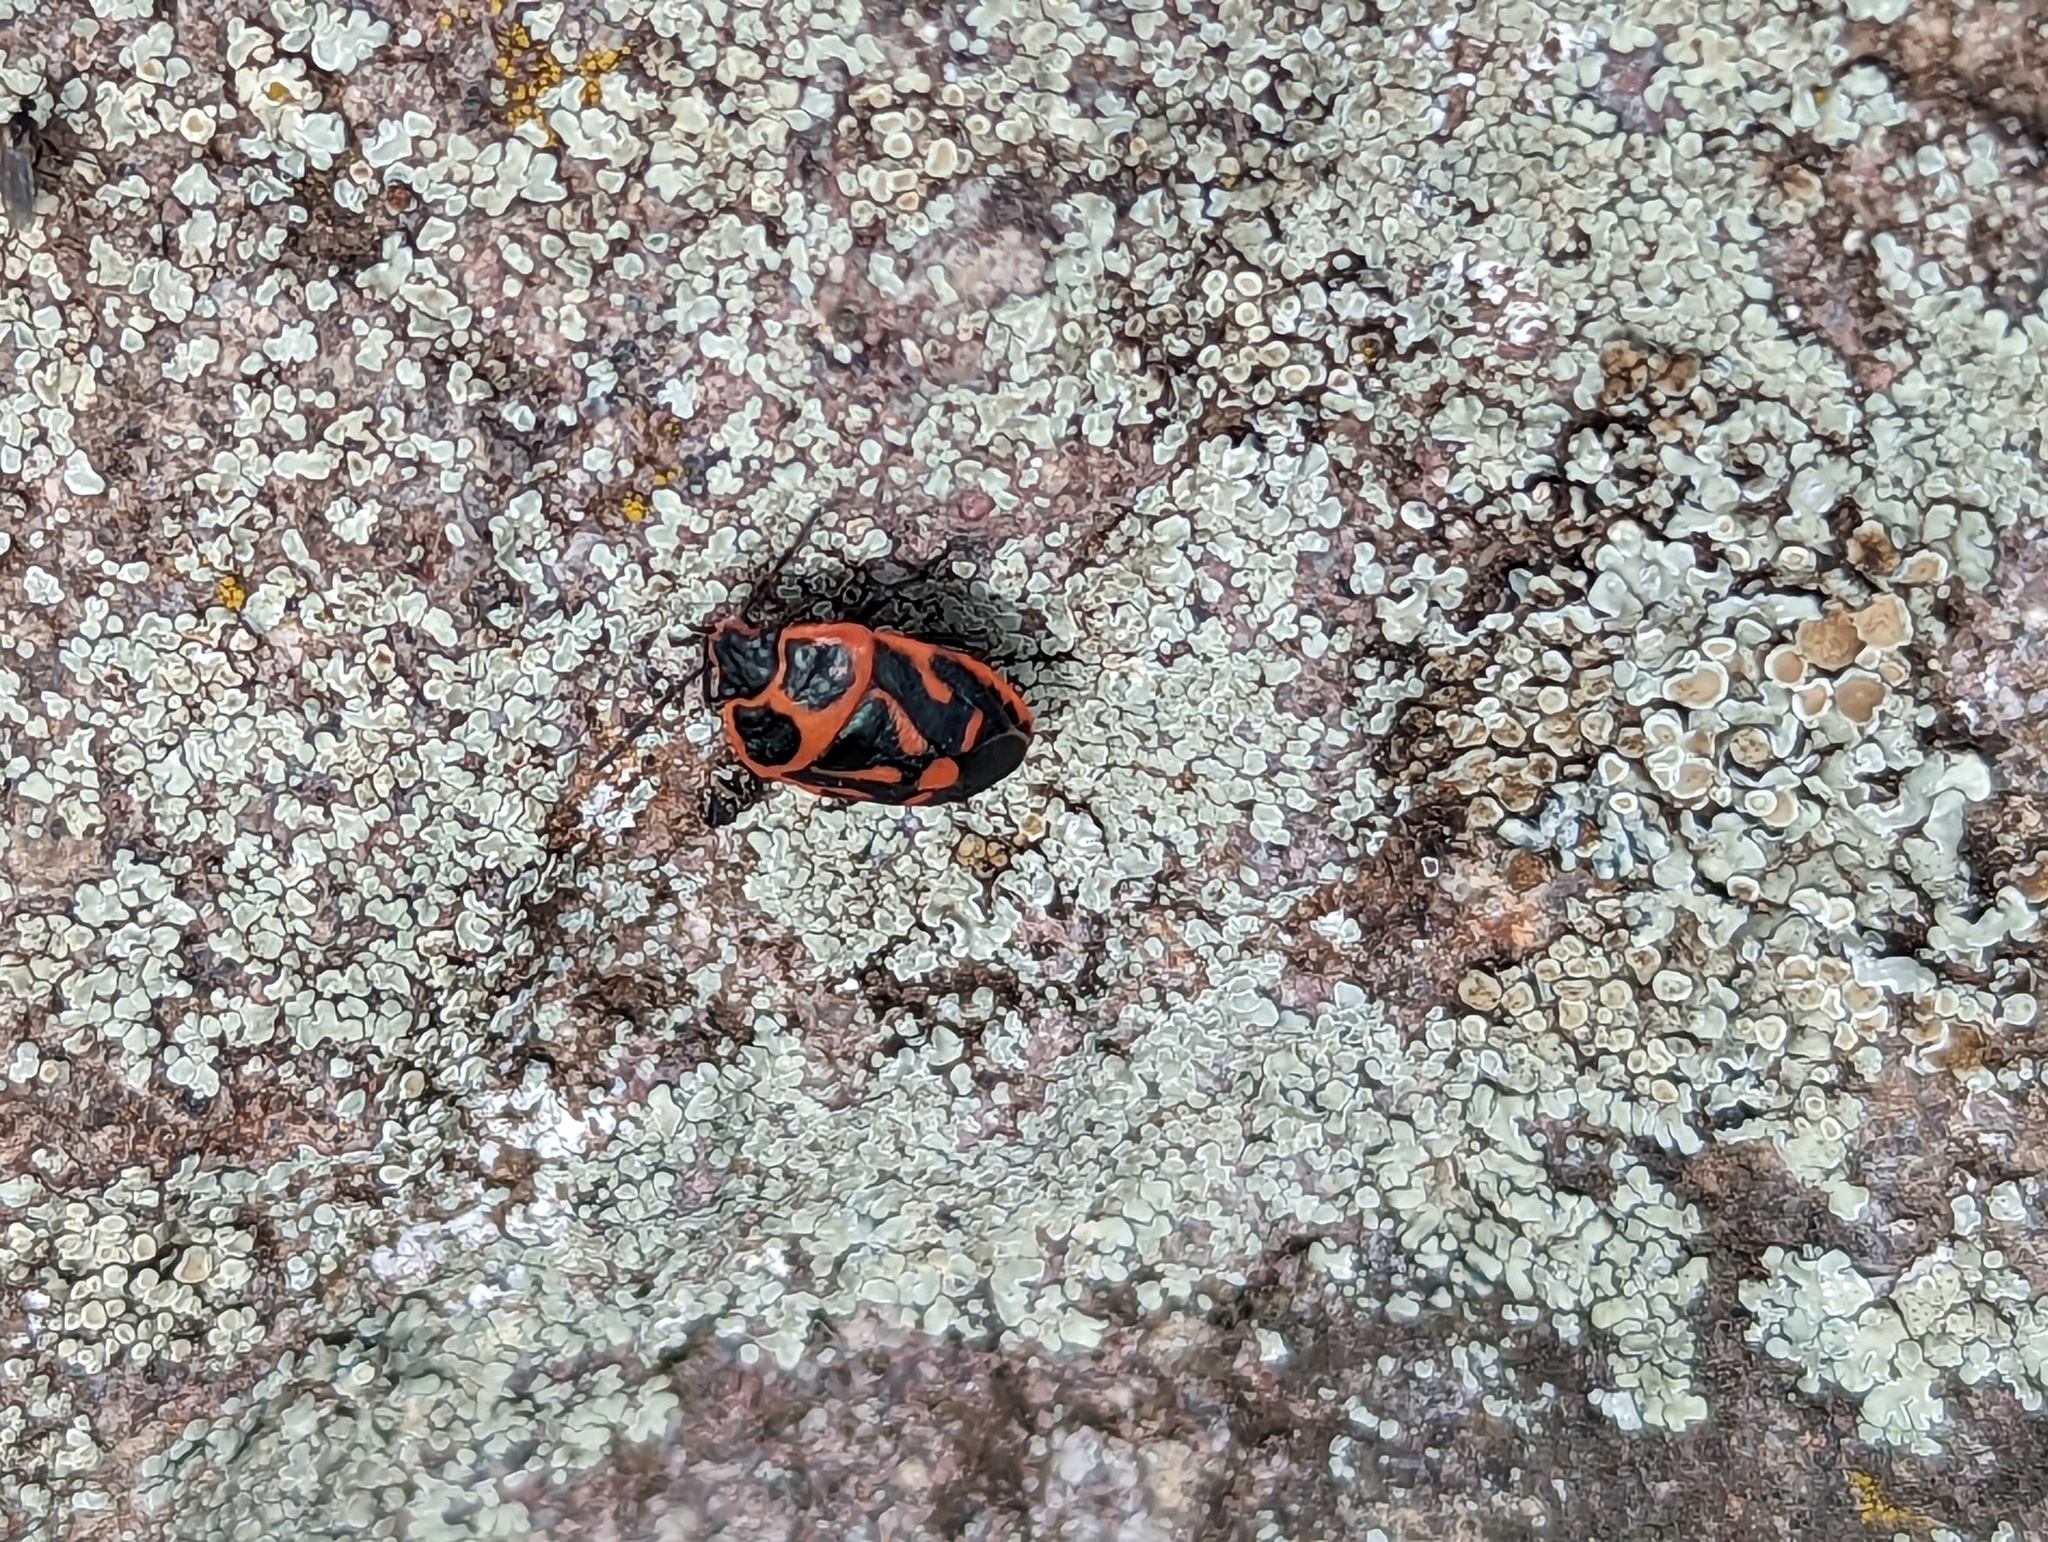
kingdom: Animalia
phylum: Arthropoda
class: Insecta
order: Hemiptera
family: Pentatomidae
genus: Eurydema
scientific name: Eurydema fieberi
